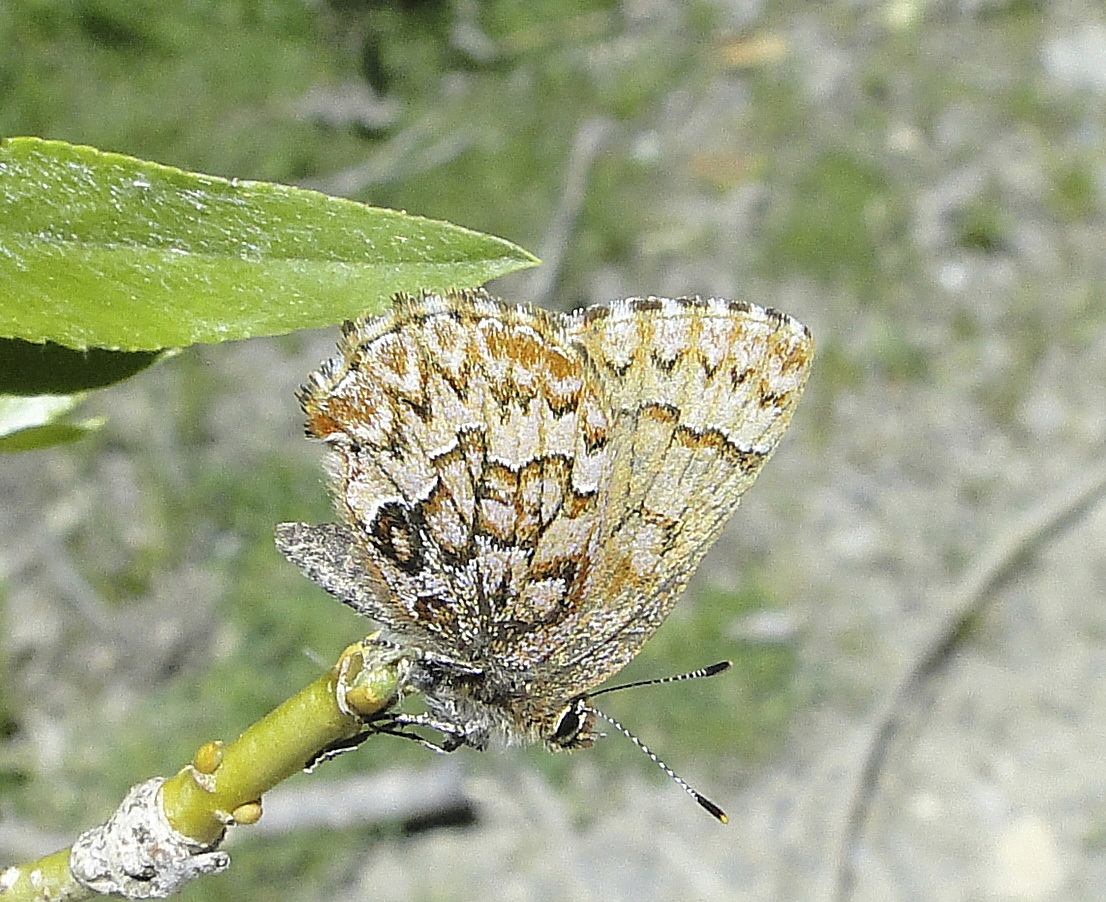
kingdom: Animalia
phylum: Arthropoda
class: Insecta
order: Lepidoptera
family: Lycaenidae
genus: Incisalia
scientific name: Incisalia eryphon
